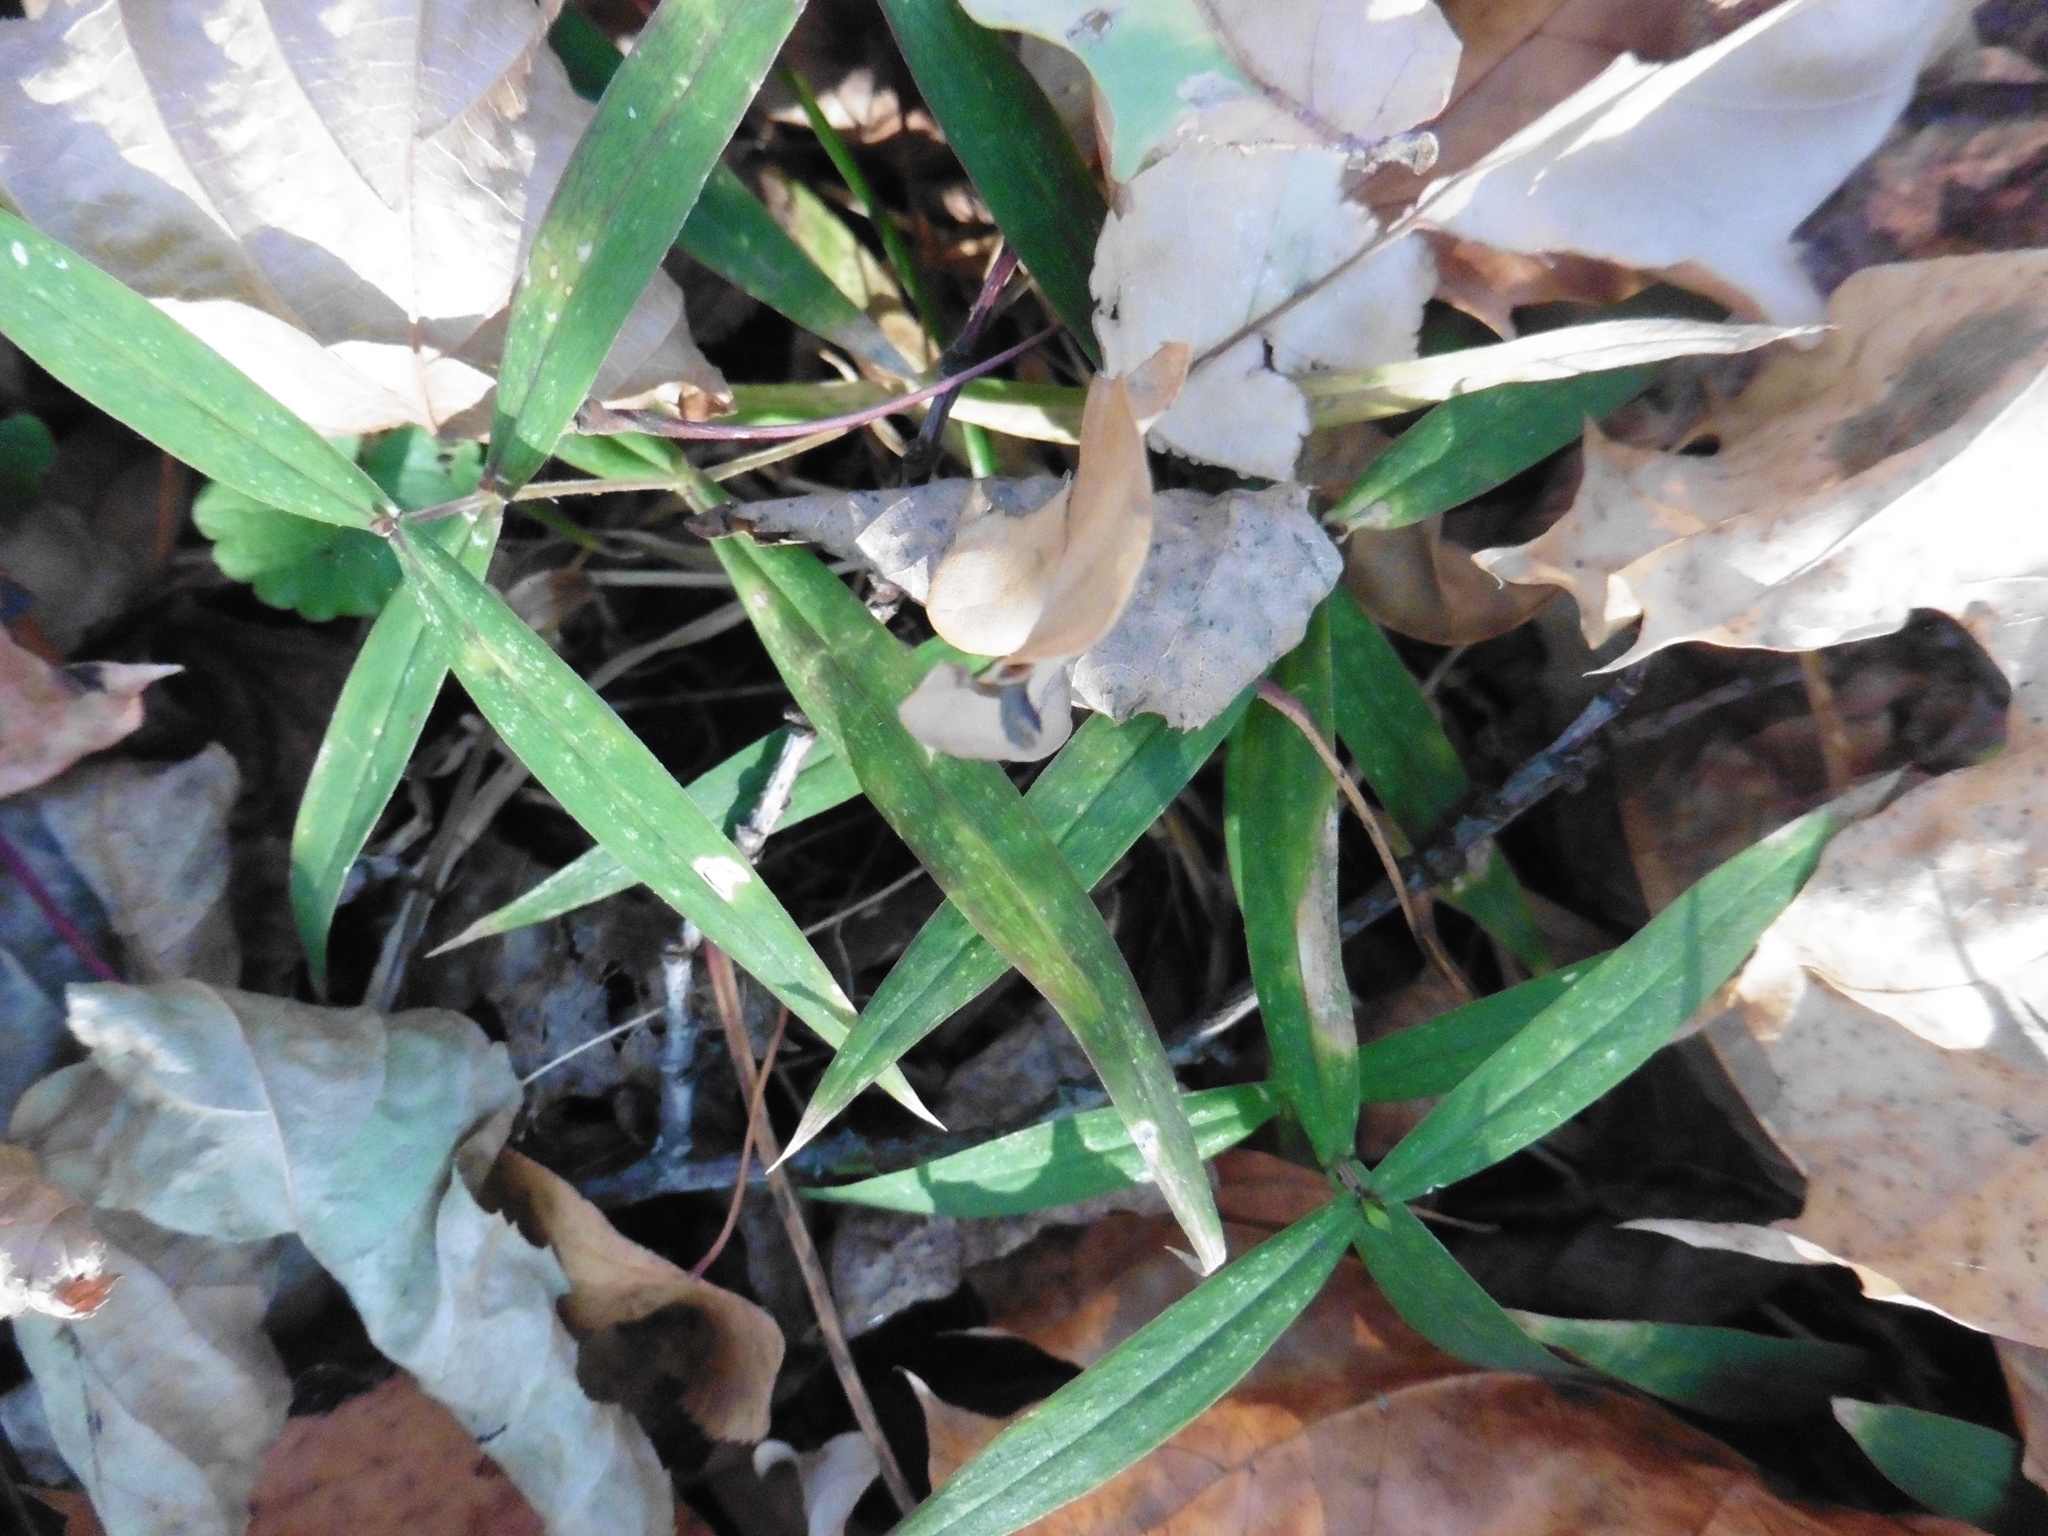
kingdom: Plantae
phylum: Tracheophyta
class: Magnoliopsida
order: Caryophyllales
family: Caryophyllaceae
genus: Rabelera
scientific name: Rabelera holostea
